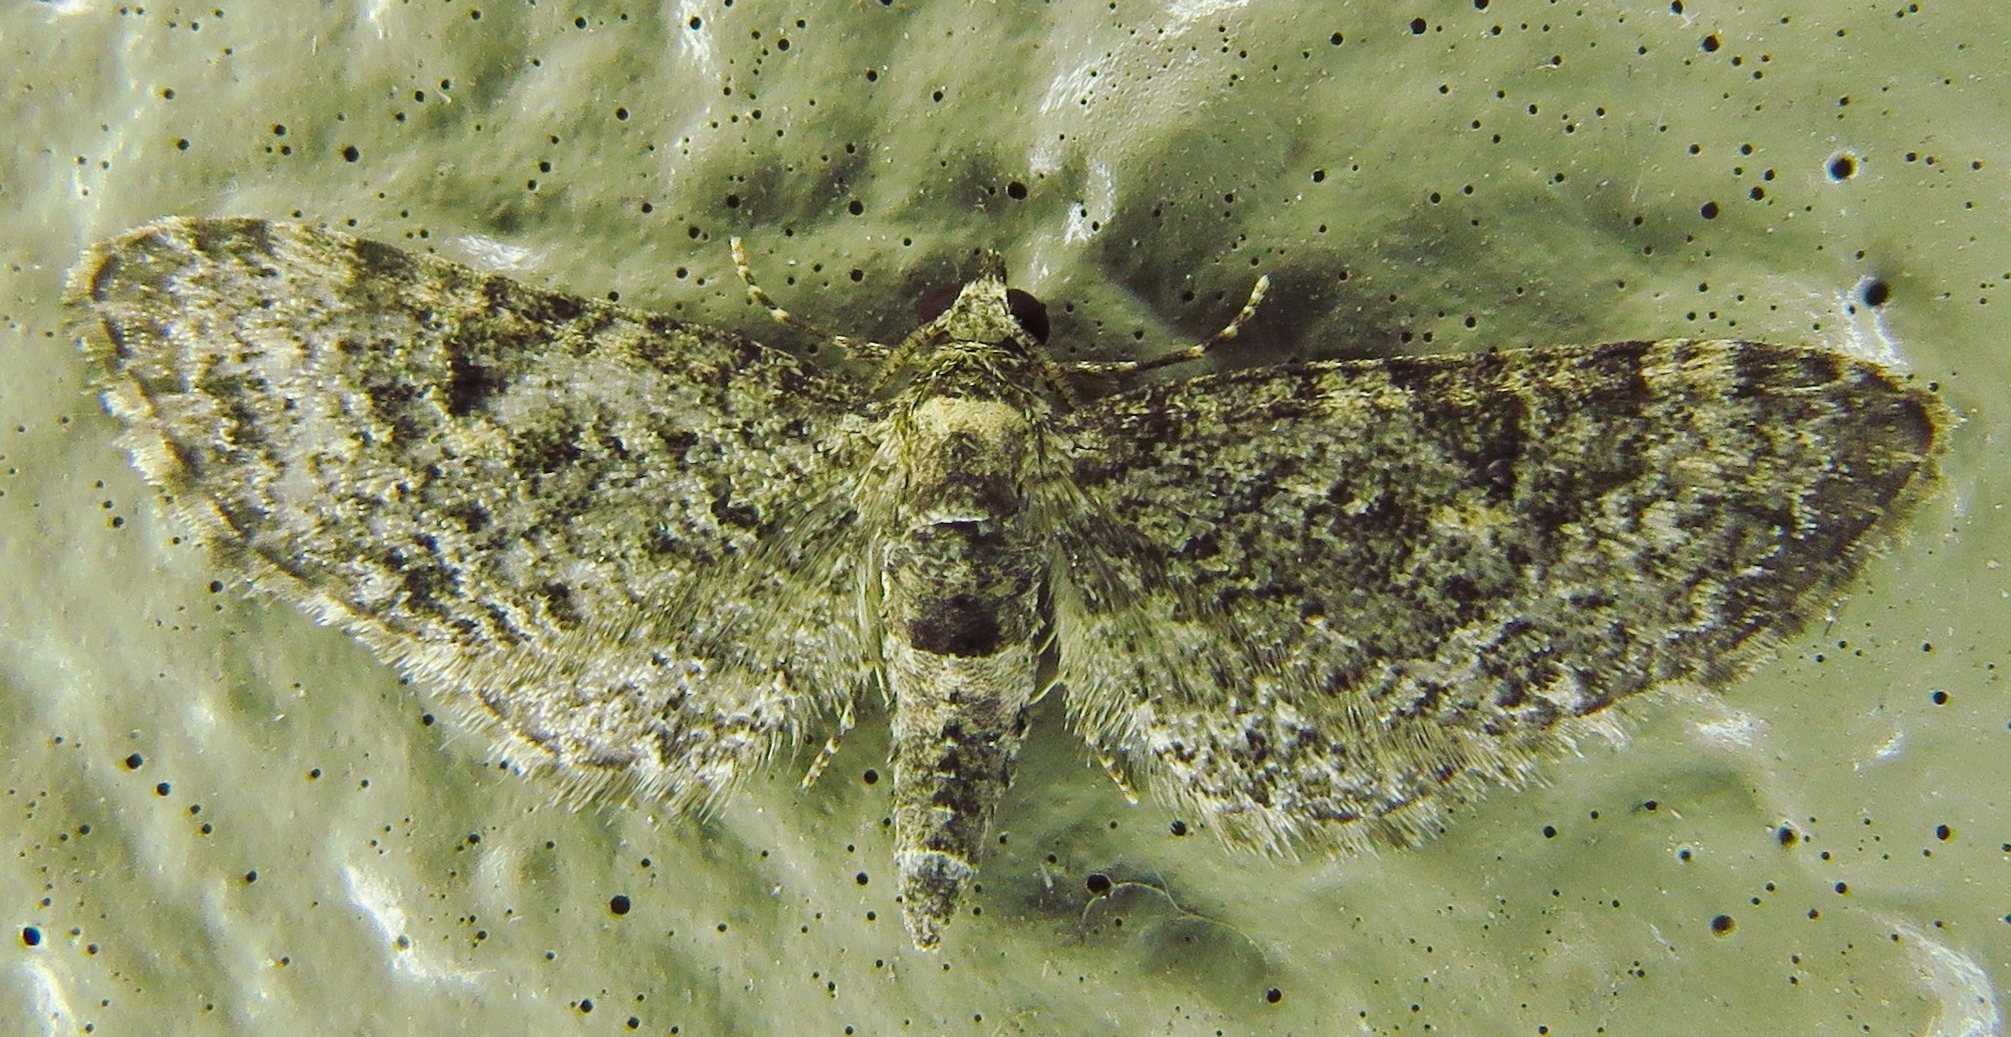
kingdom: Animalia
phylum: Arthropoda
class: Insecta
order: Lepidoptera
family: Geometridae
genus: Eupithecia
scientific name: Eupithecia miserulata
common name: Common eupithecia
